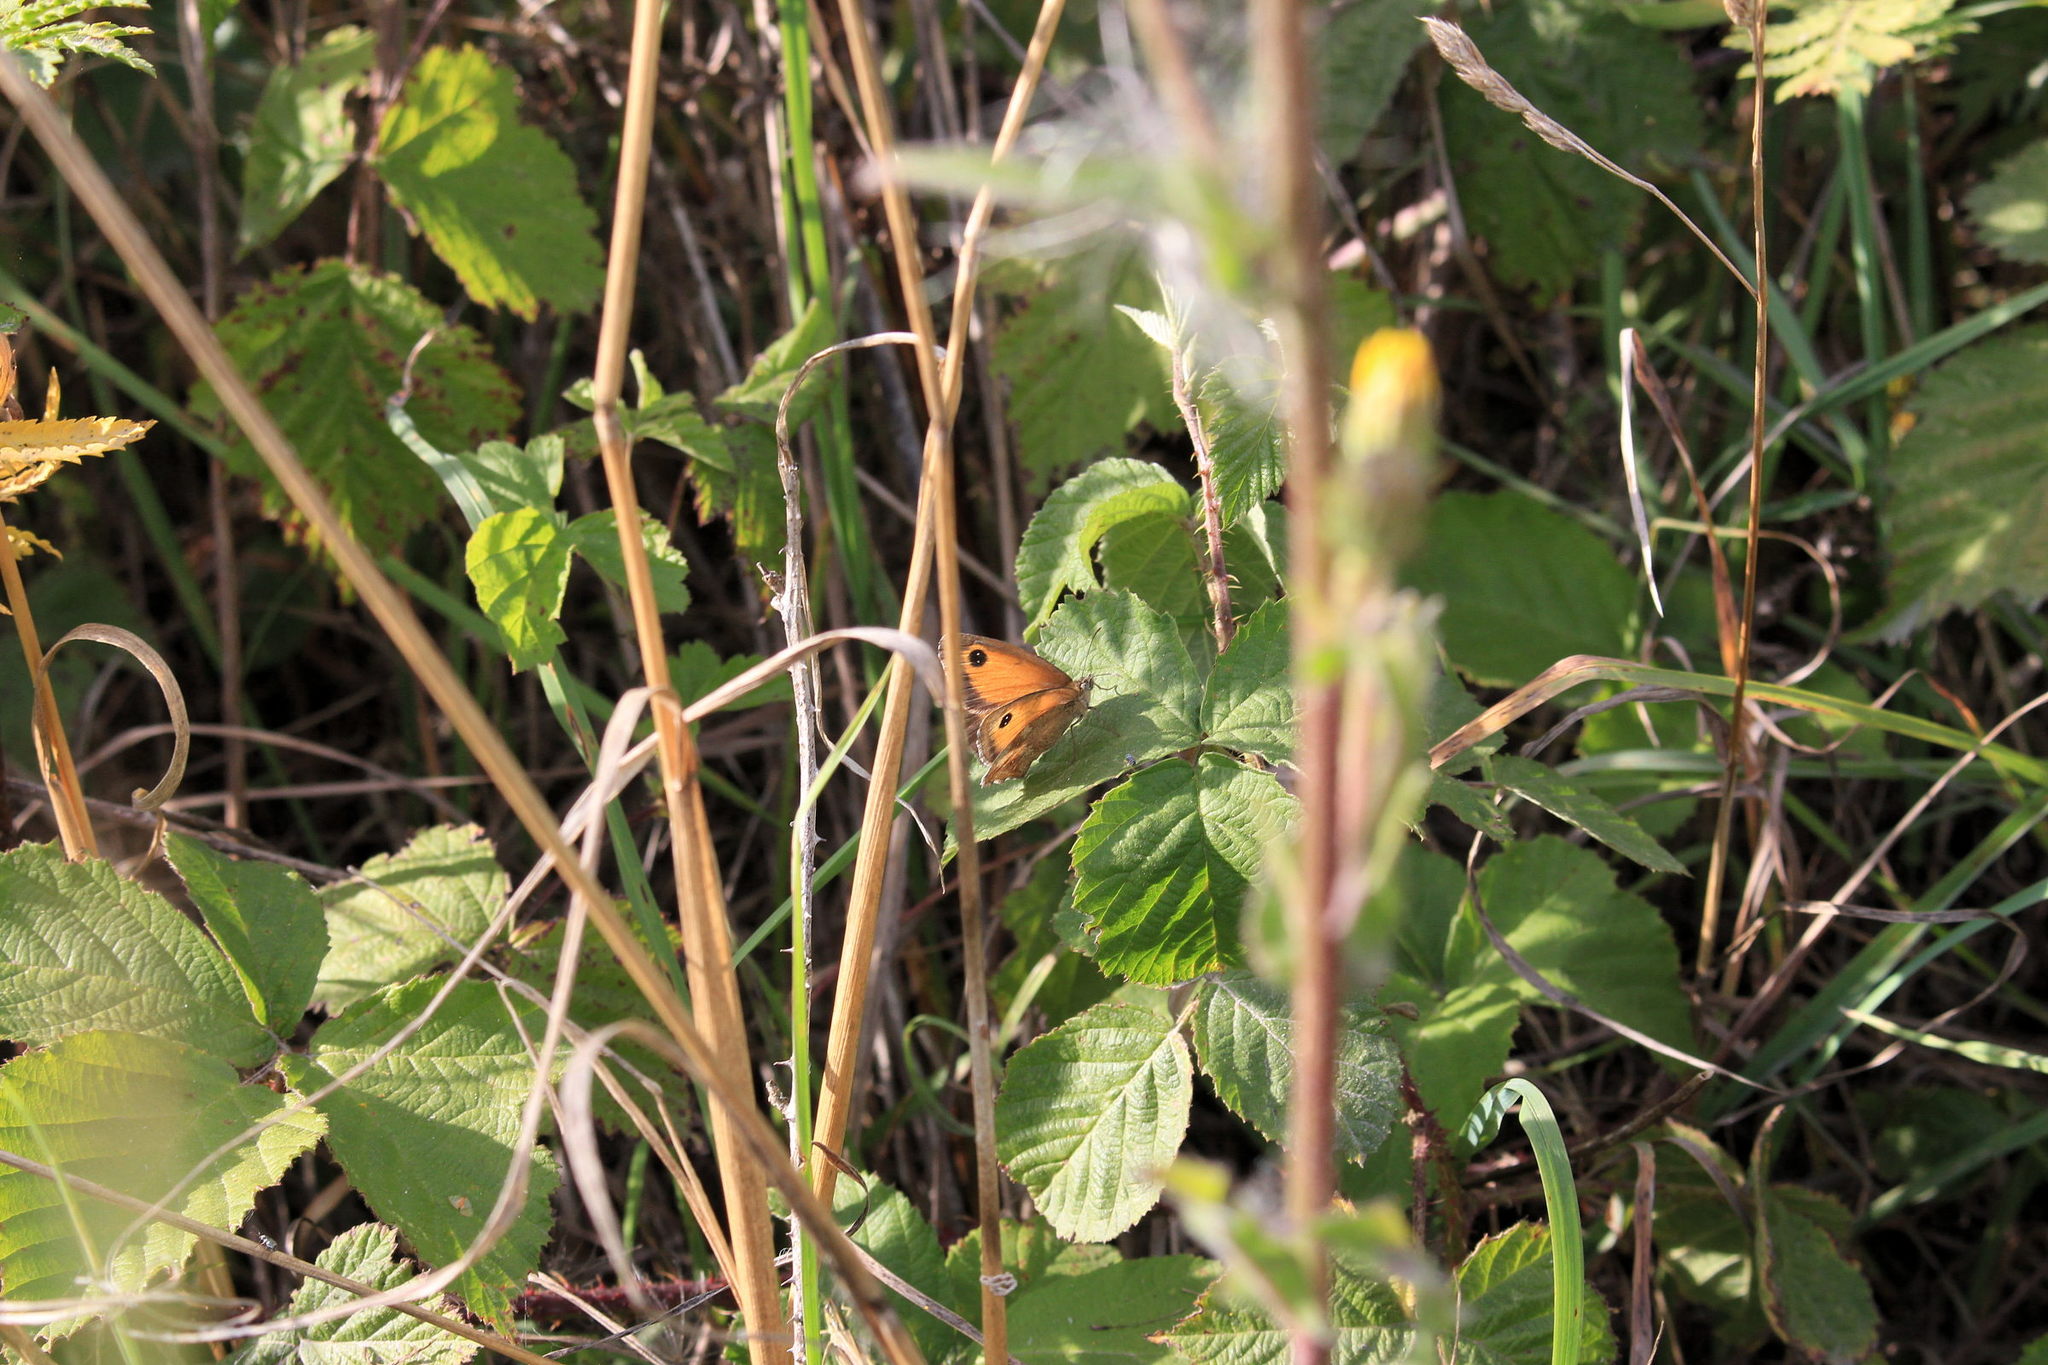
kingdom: Animalia
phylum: Arthropoda
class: Insecta
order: Lepidoptera
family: Nymphalidae
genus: Pyronia
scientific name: Pyronia tithonus
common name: Gatekeeper
